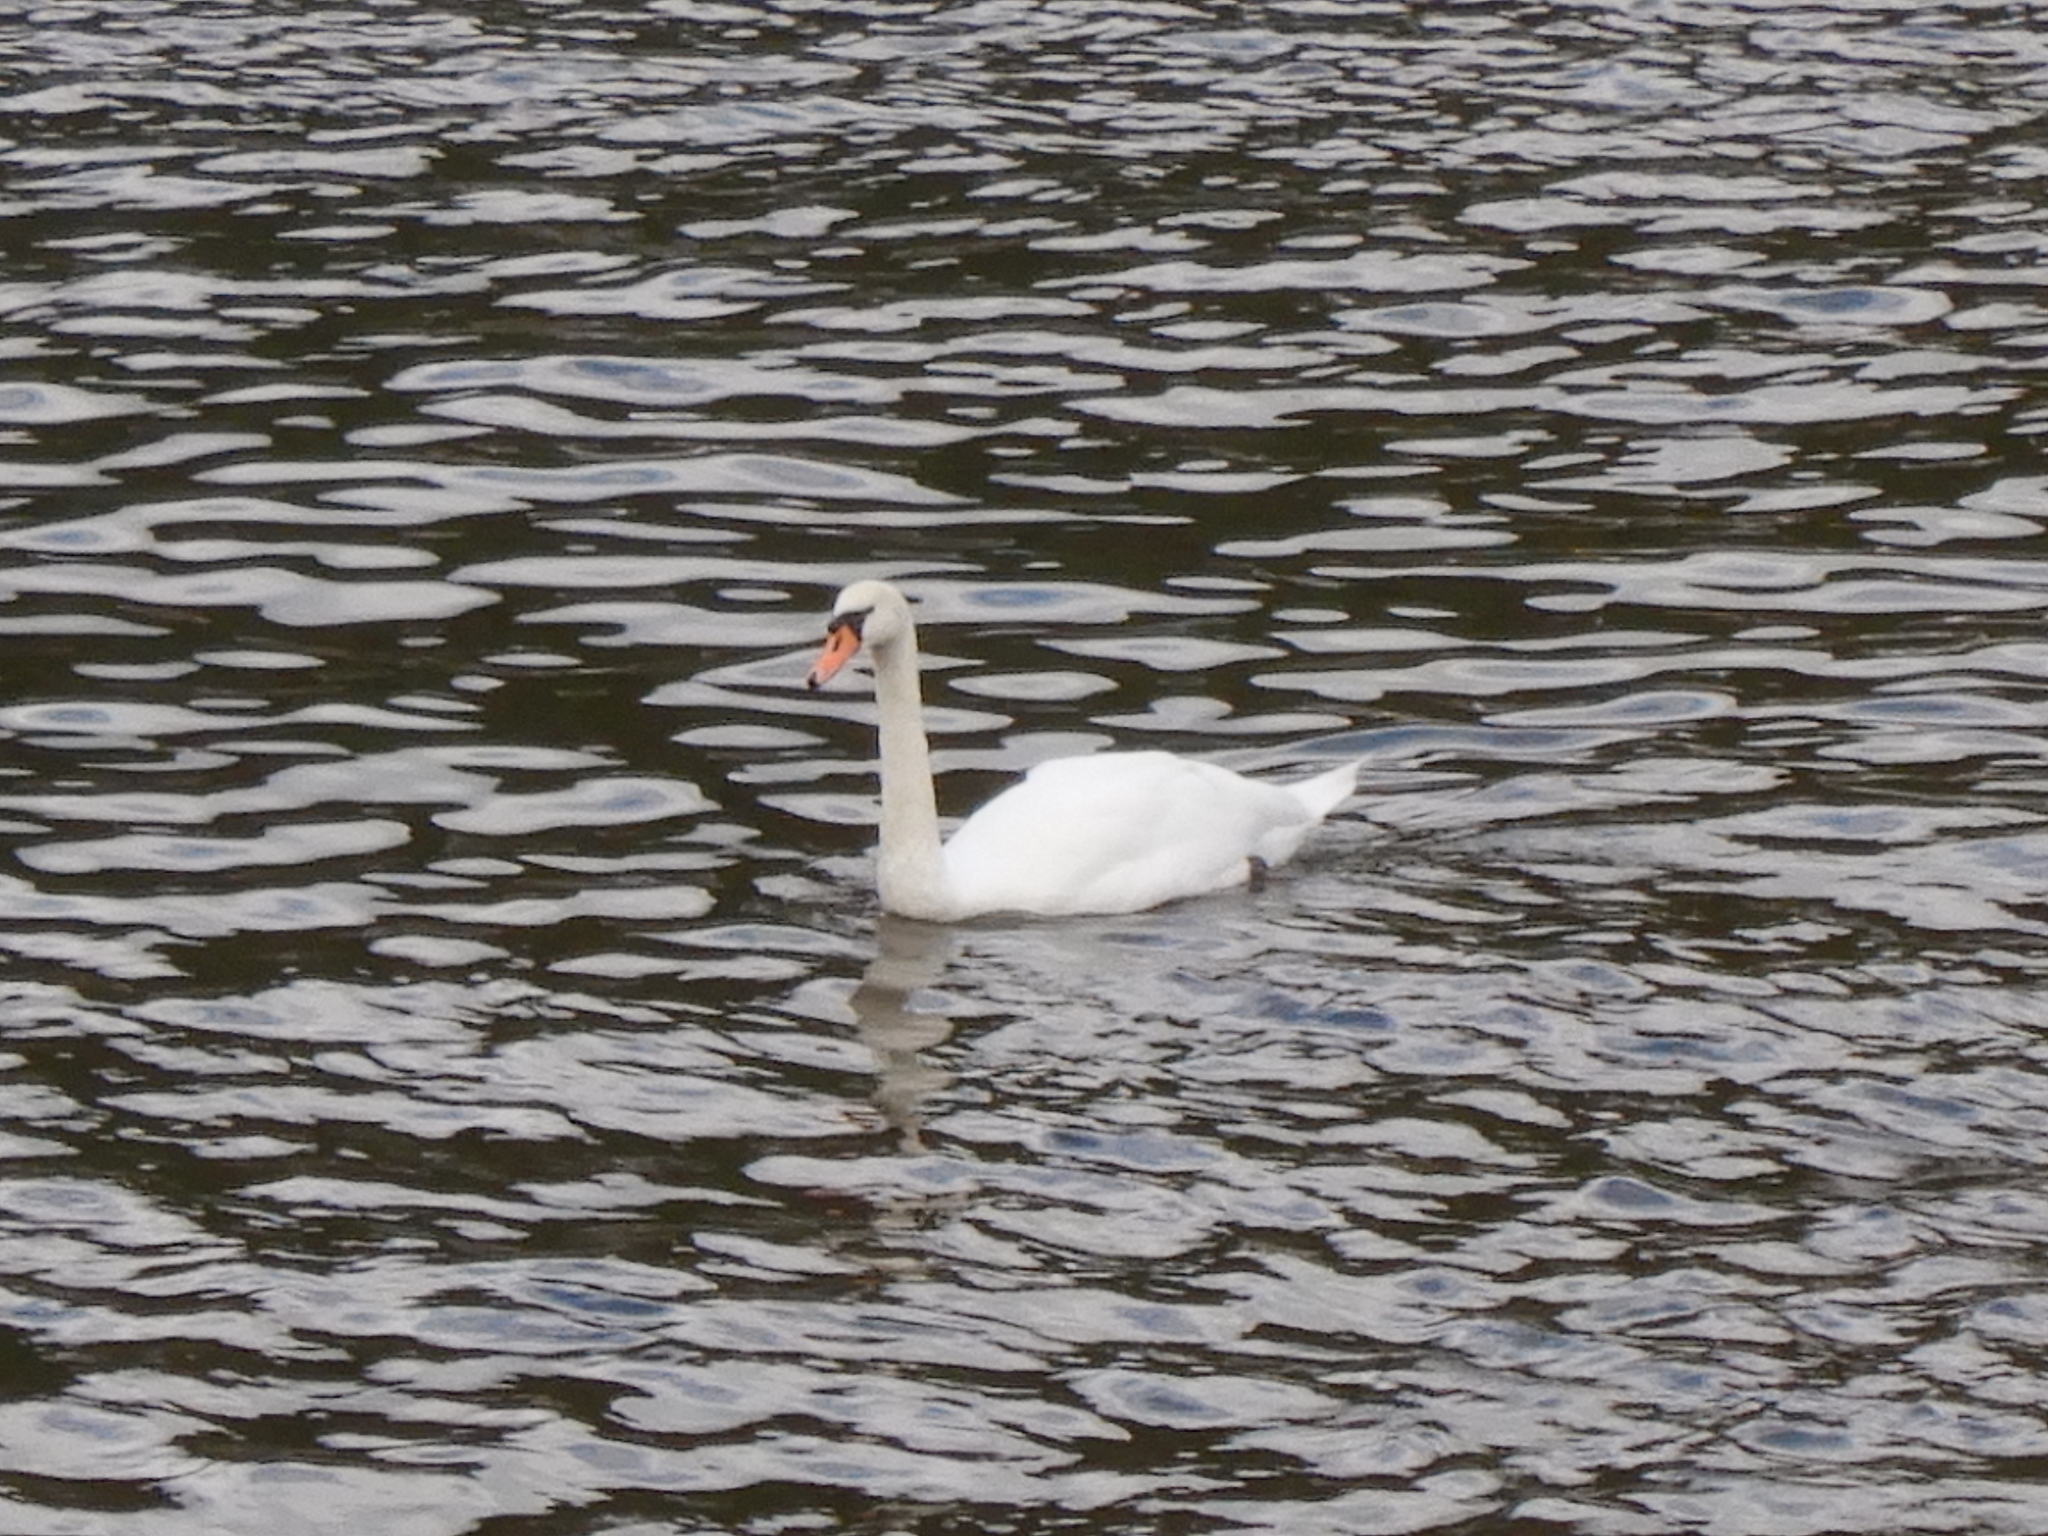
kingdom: Animalia
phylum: Chordata
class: Aves
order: Anseriformes
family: Anatidae
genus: Cygnus
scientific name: Cygnus olor
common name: Mute swan
